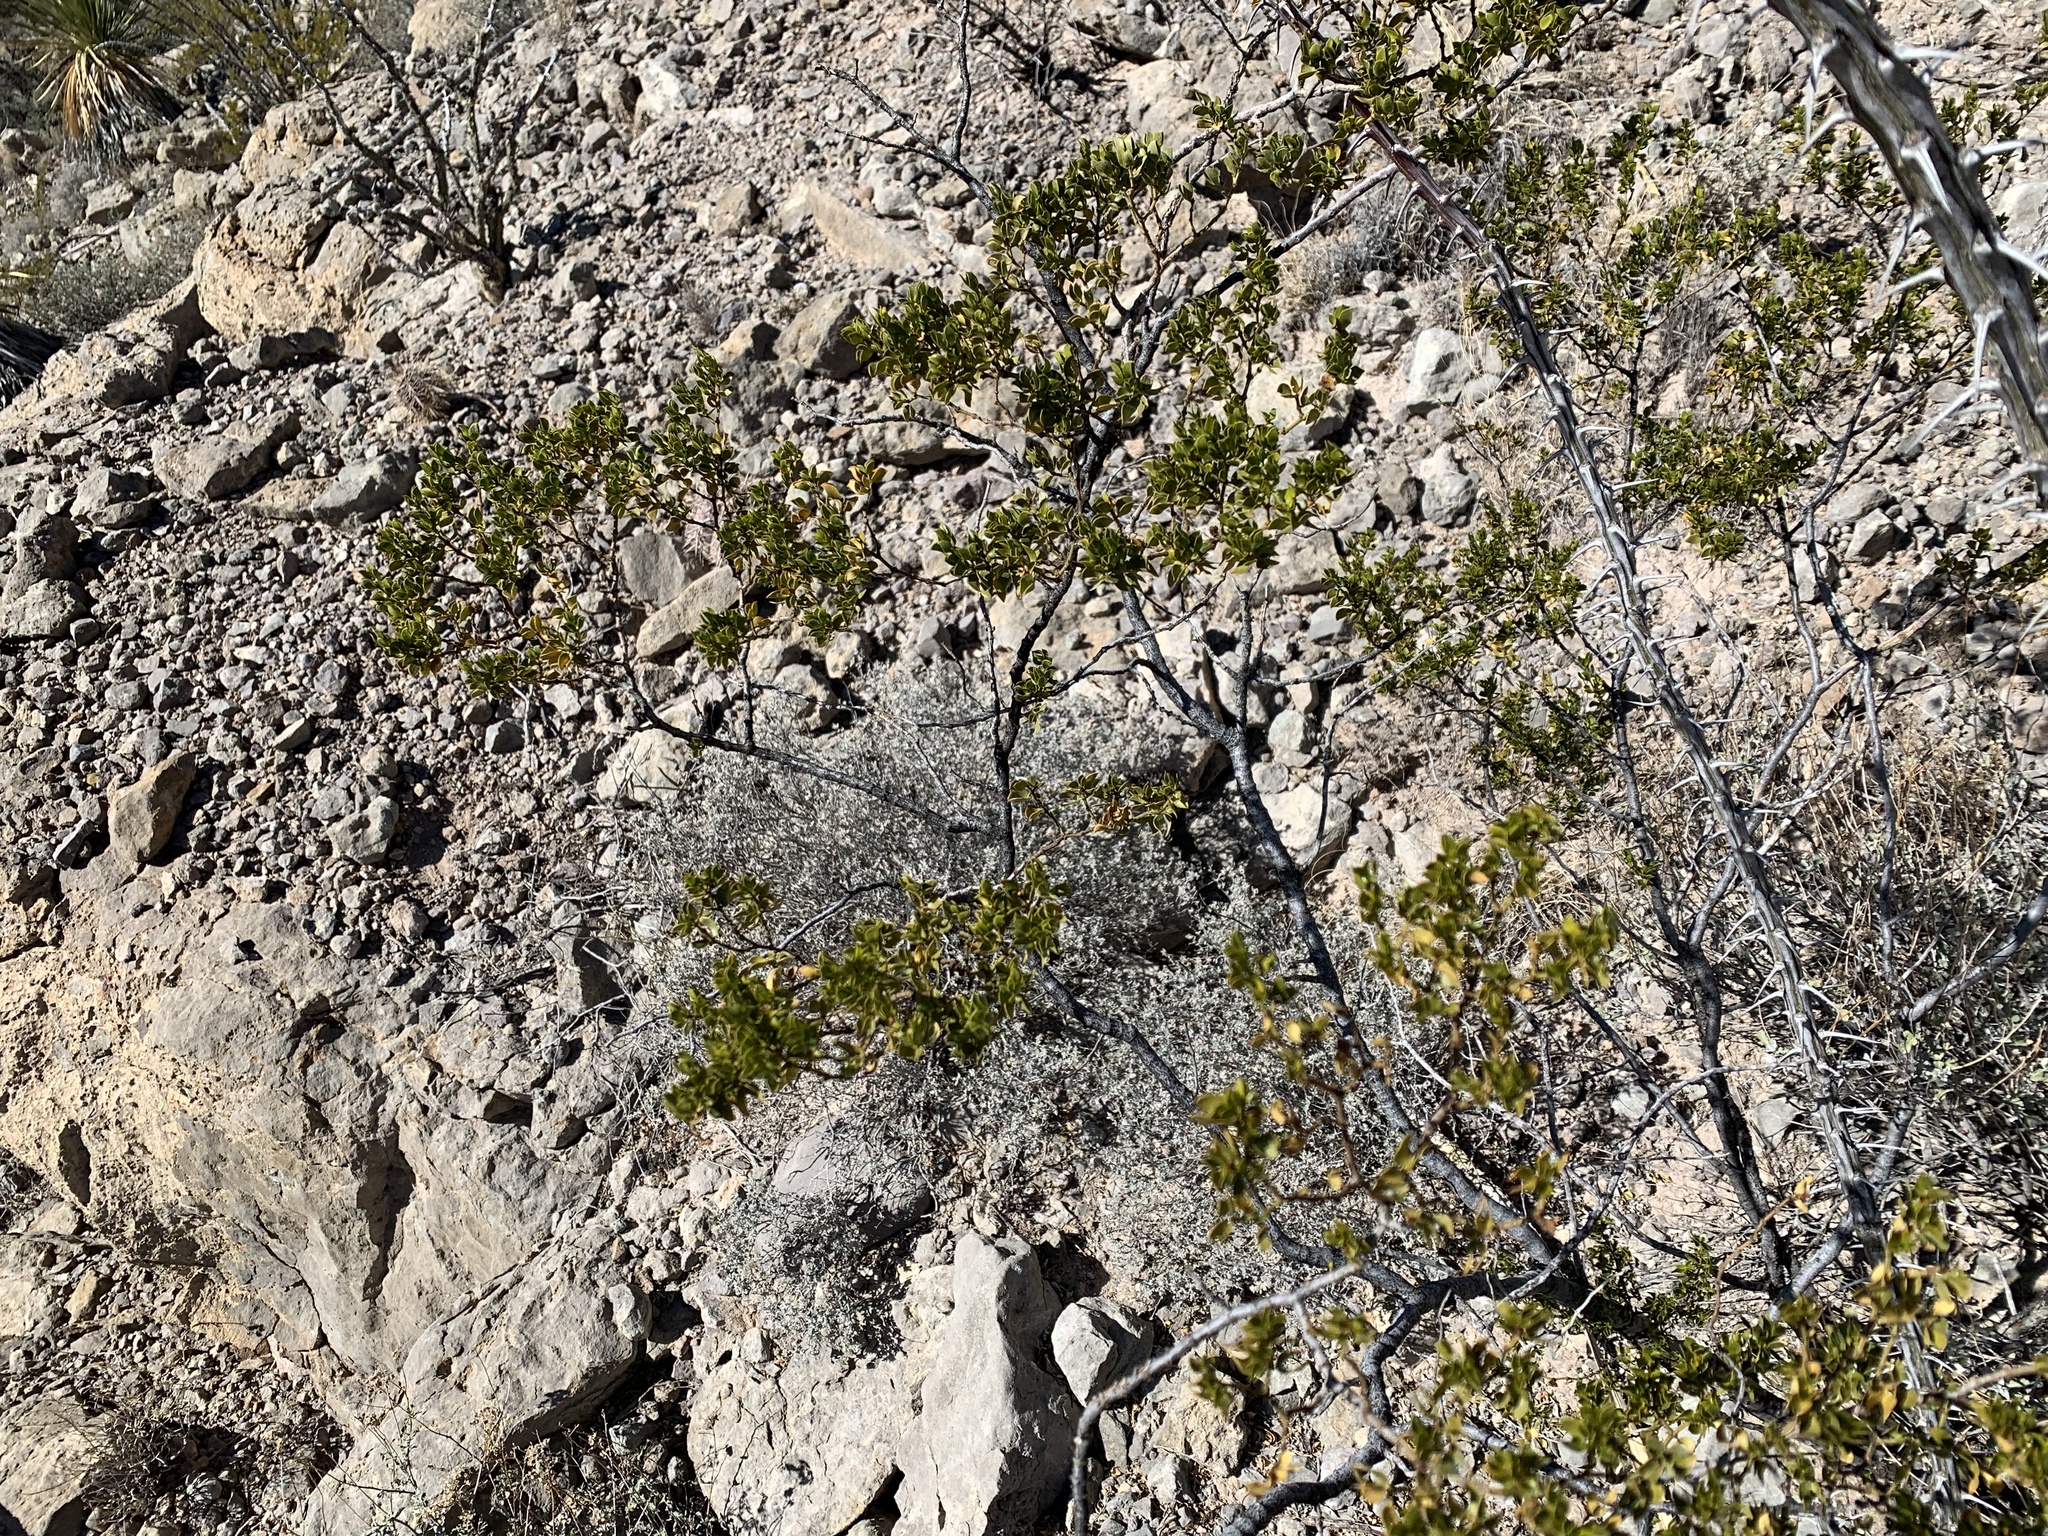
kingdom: Plantae
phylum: Tracheophyta
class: Magnoliopsida
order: Zygophyllales
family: Zygophyllaceae
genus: Larrea
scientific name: Larrea tridentata
